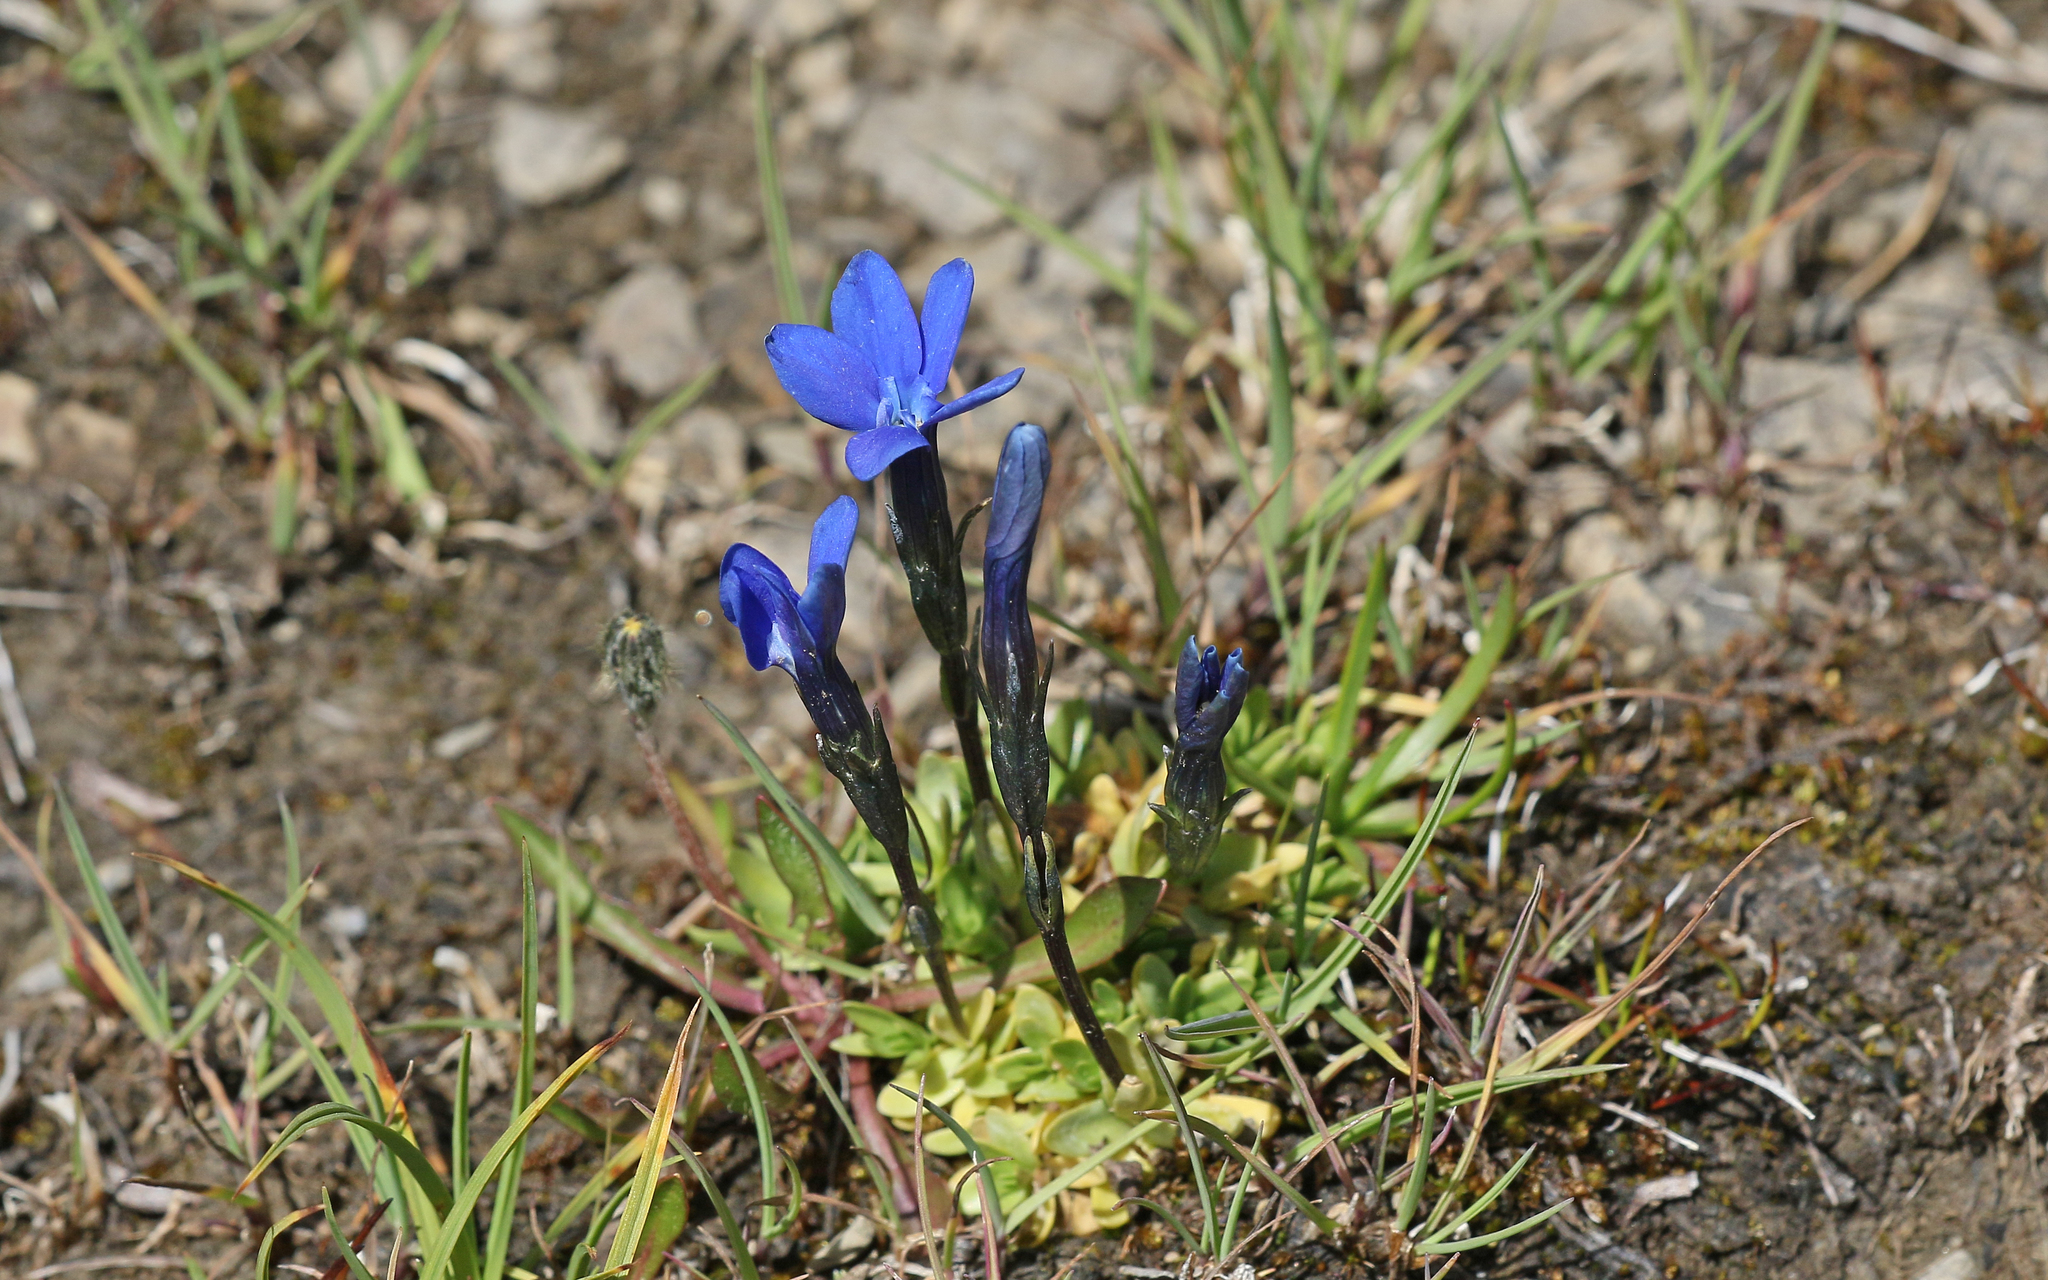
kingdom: Plantae
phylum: Tracheophyta
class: Magnoliopsida
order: Gentianales
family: Gentianaceae
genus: Gentiana
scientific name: Gentiana rostanii
